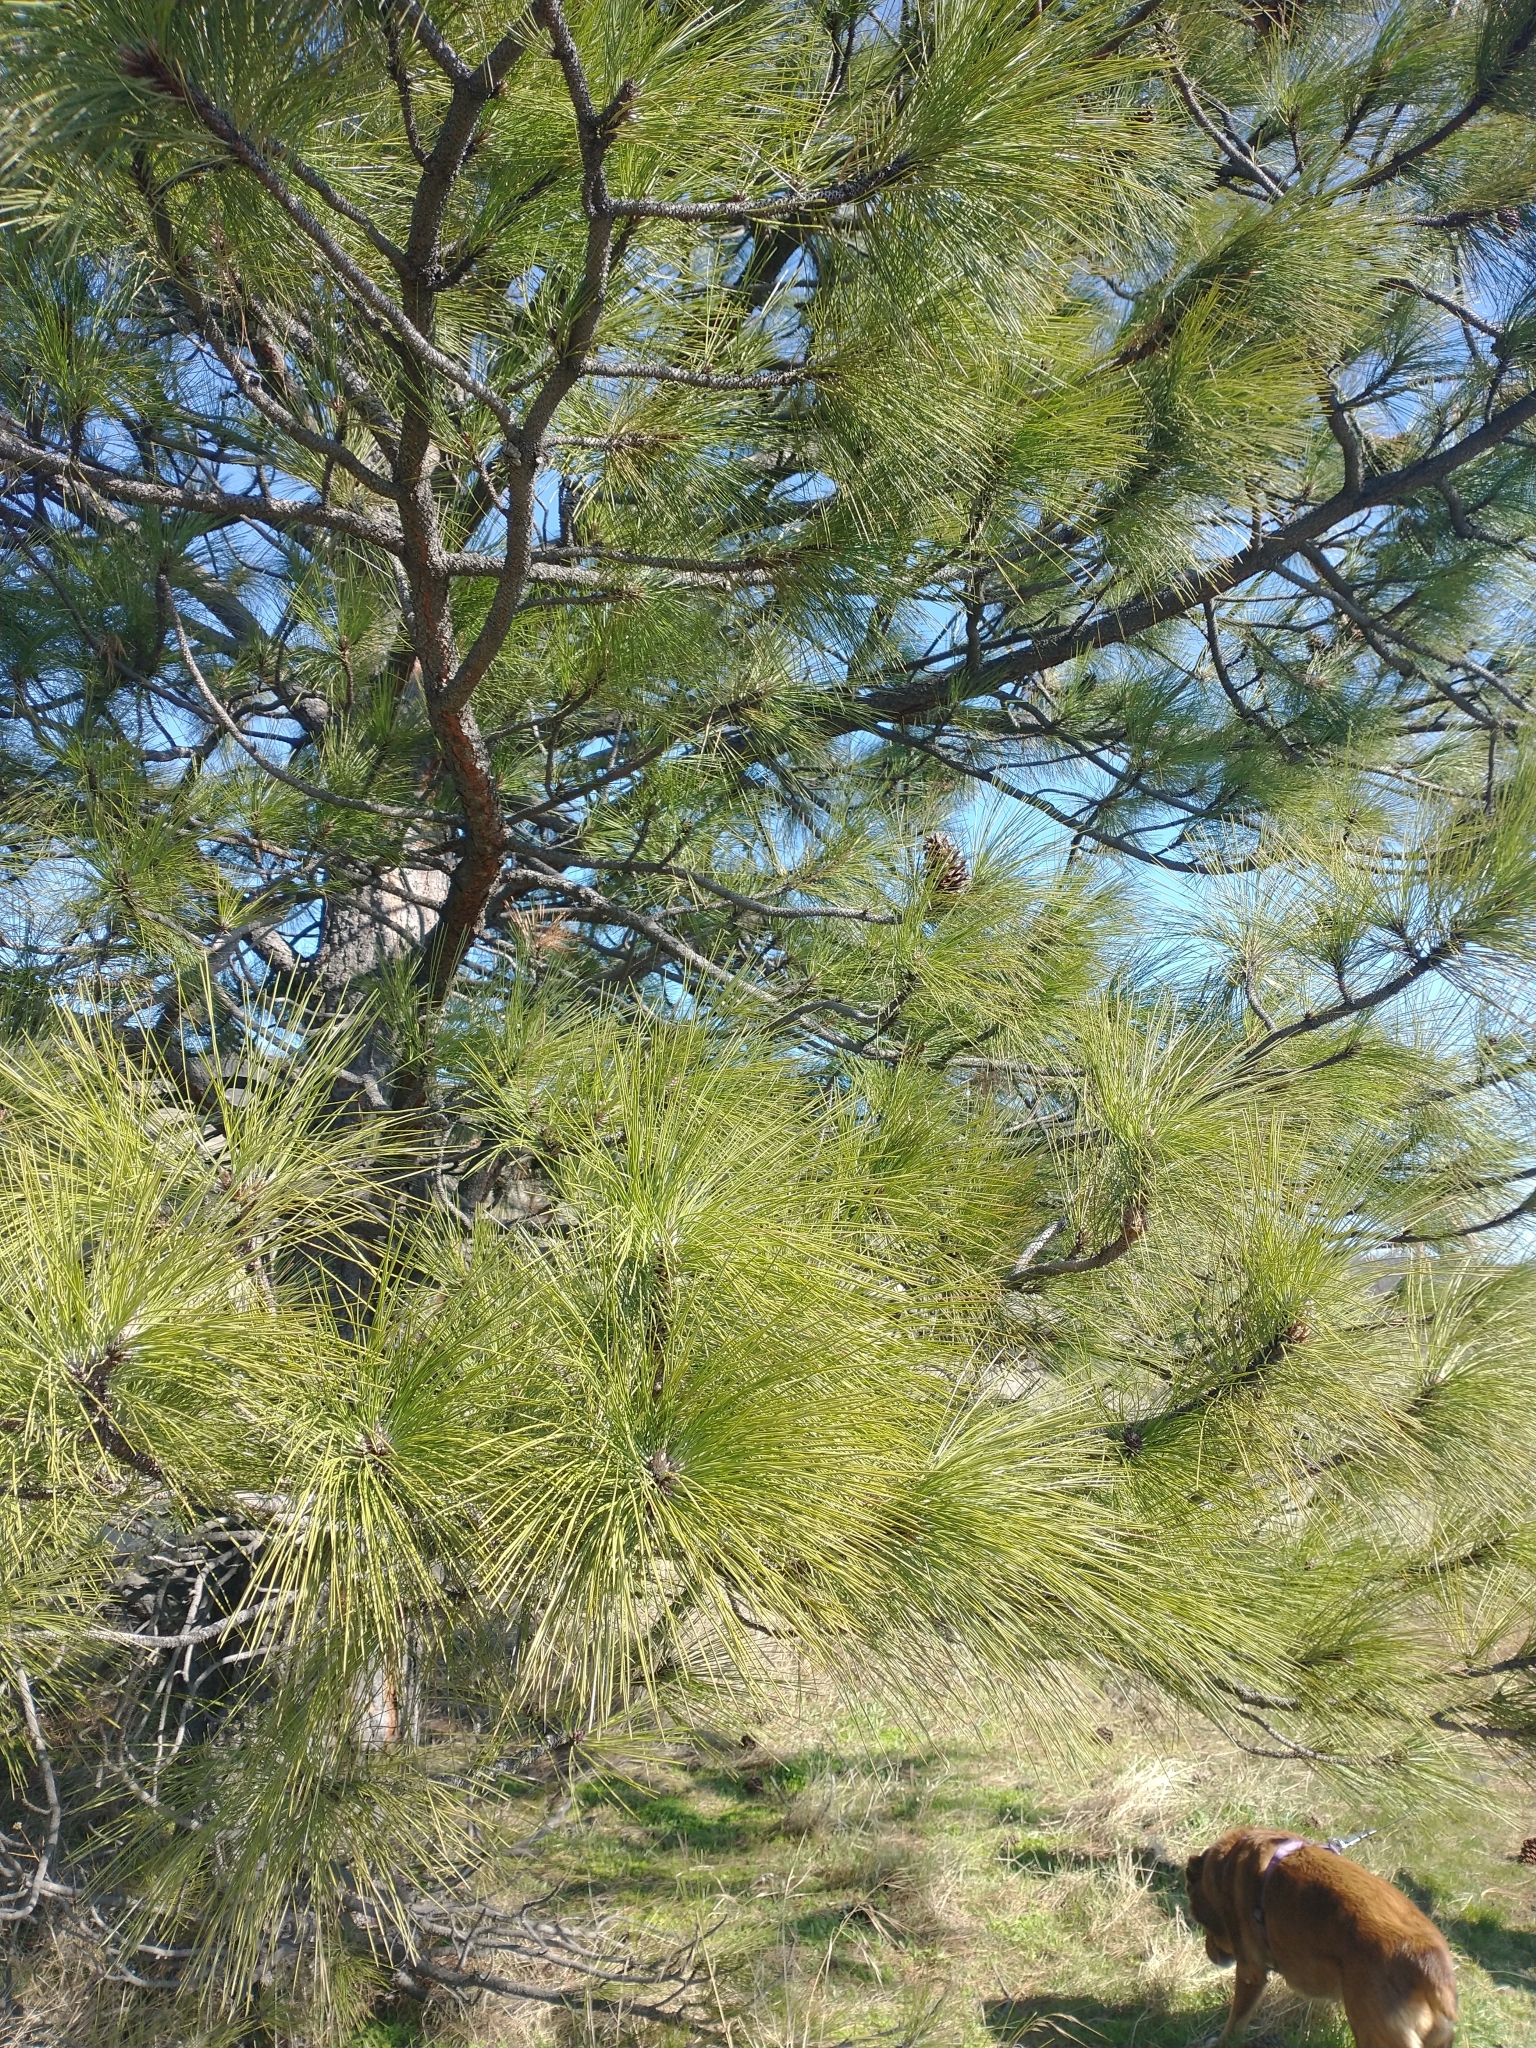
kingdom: Plantae
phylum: Tracheophyta
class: Pinopsida
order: Pinales
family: Pinaceae
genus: Pinus
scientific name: Pinus ponderosa
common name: Western yellow-pine
